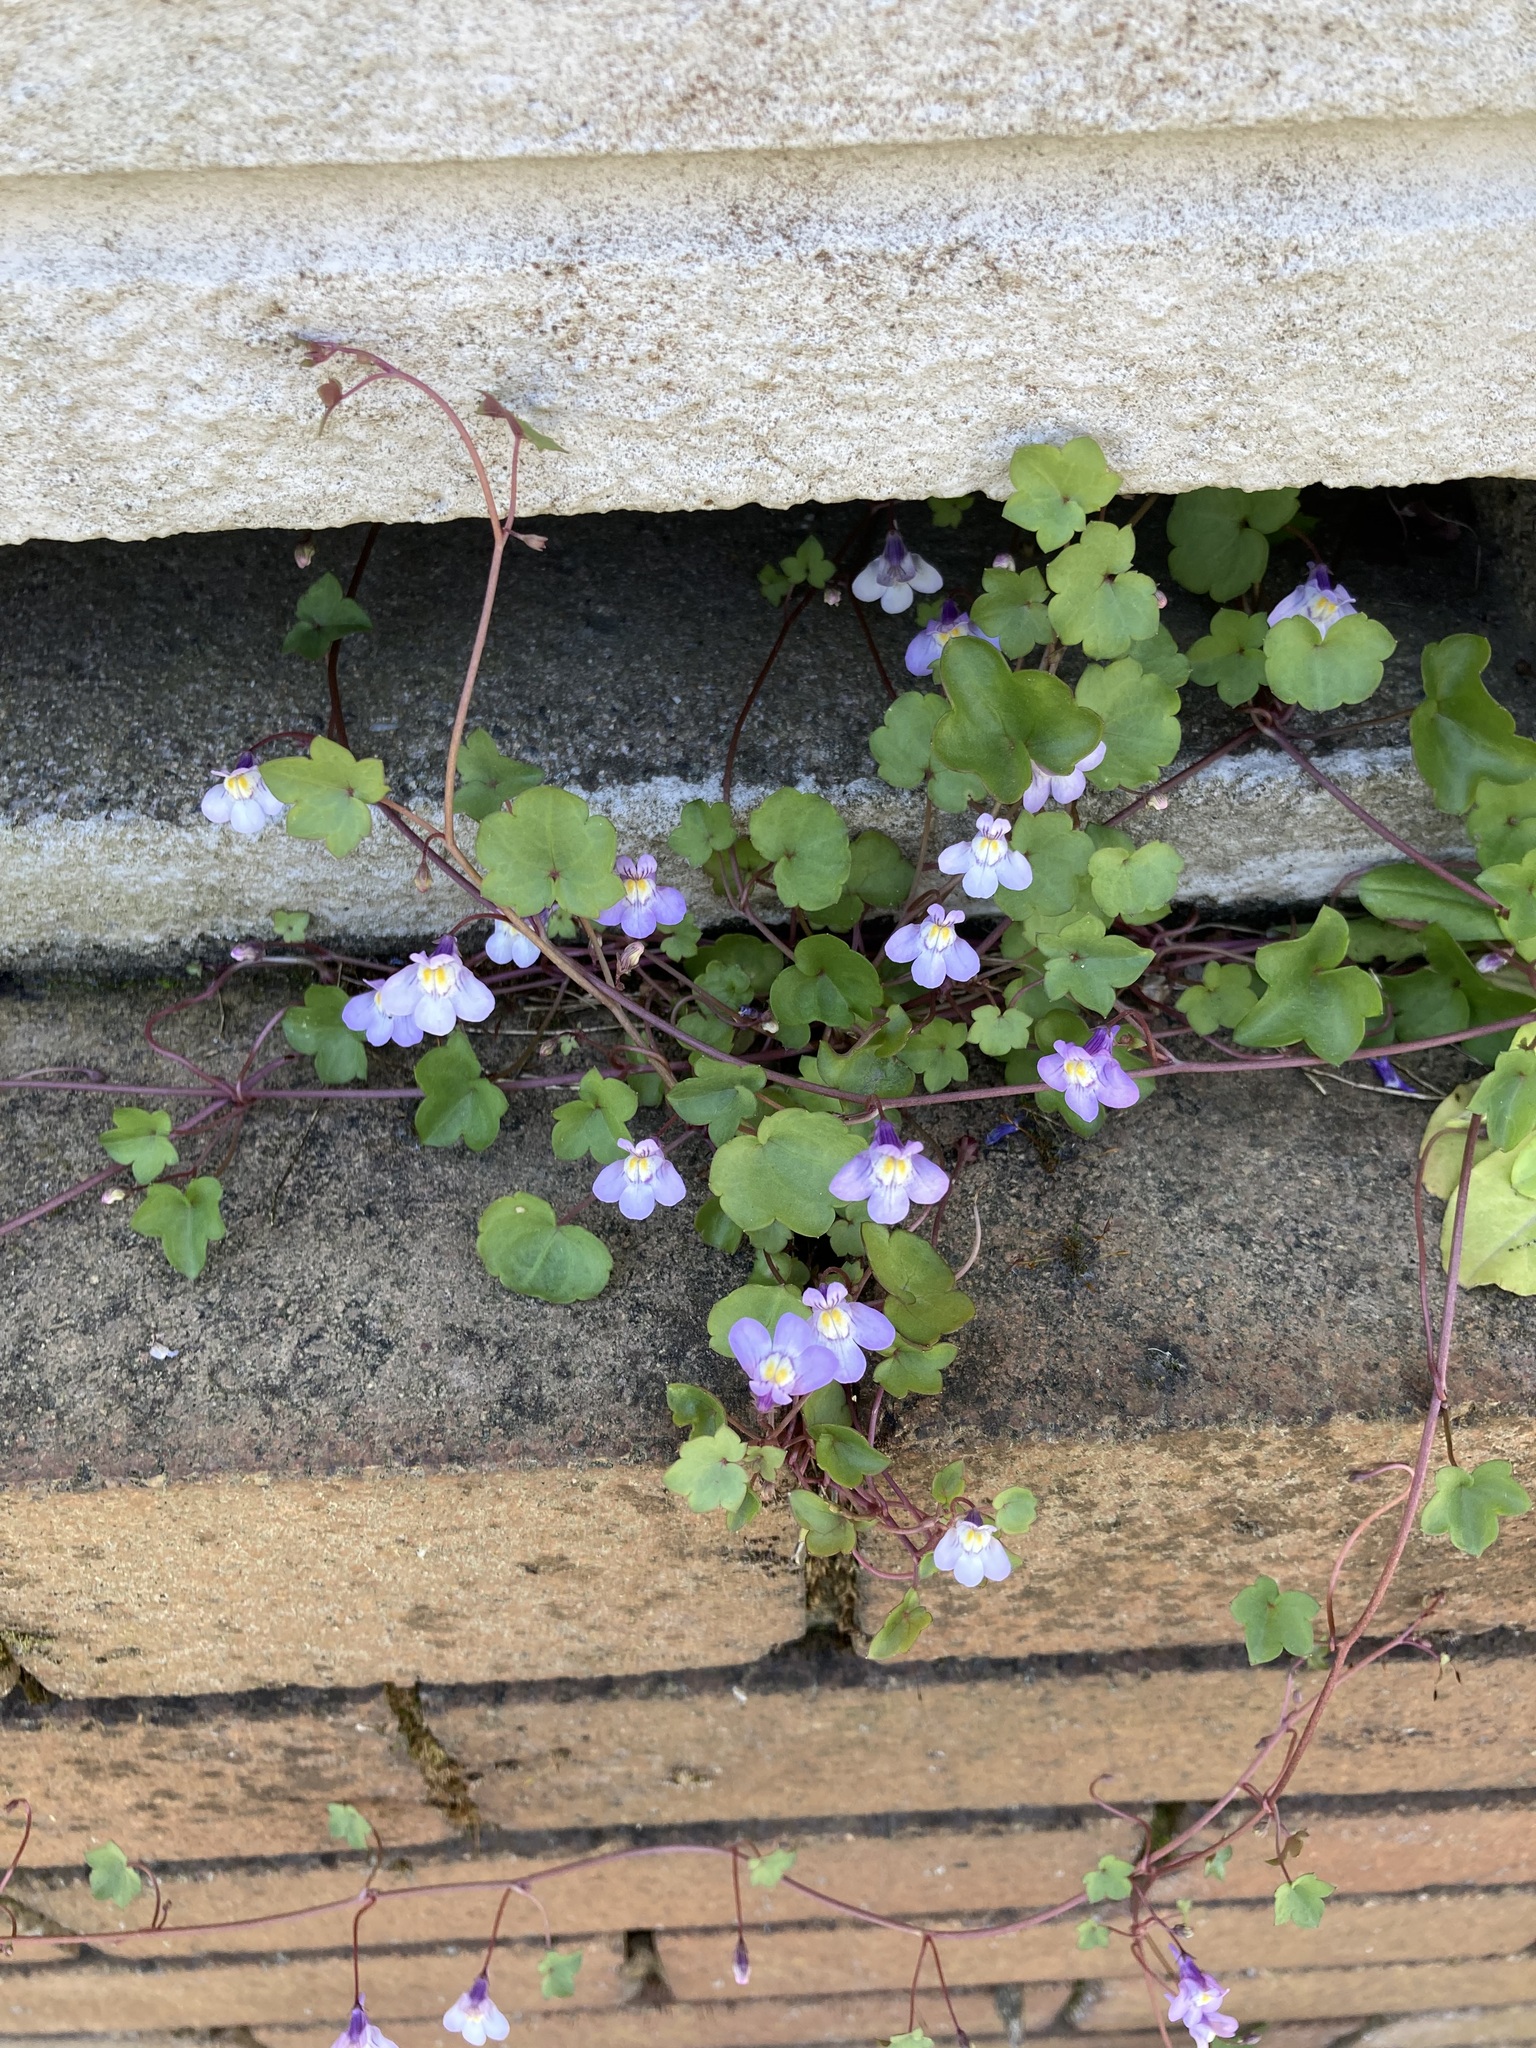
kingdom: Plantae
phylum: Tracheophyta
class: Magnoliopsida
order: Lamiales
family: Plantaginaceae
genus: Cymbalaria
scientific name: Cymbalaria muralis
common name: Ivy-leaved toadflax
